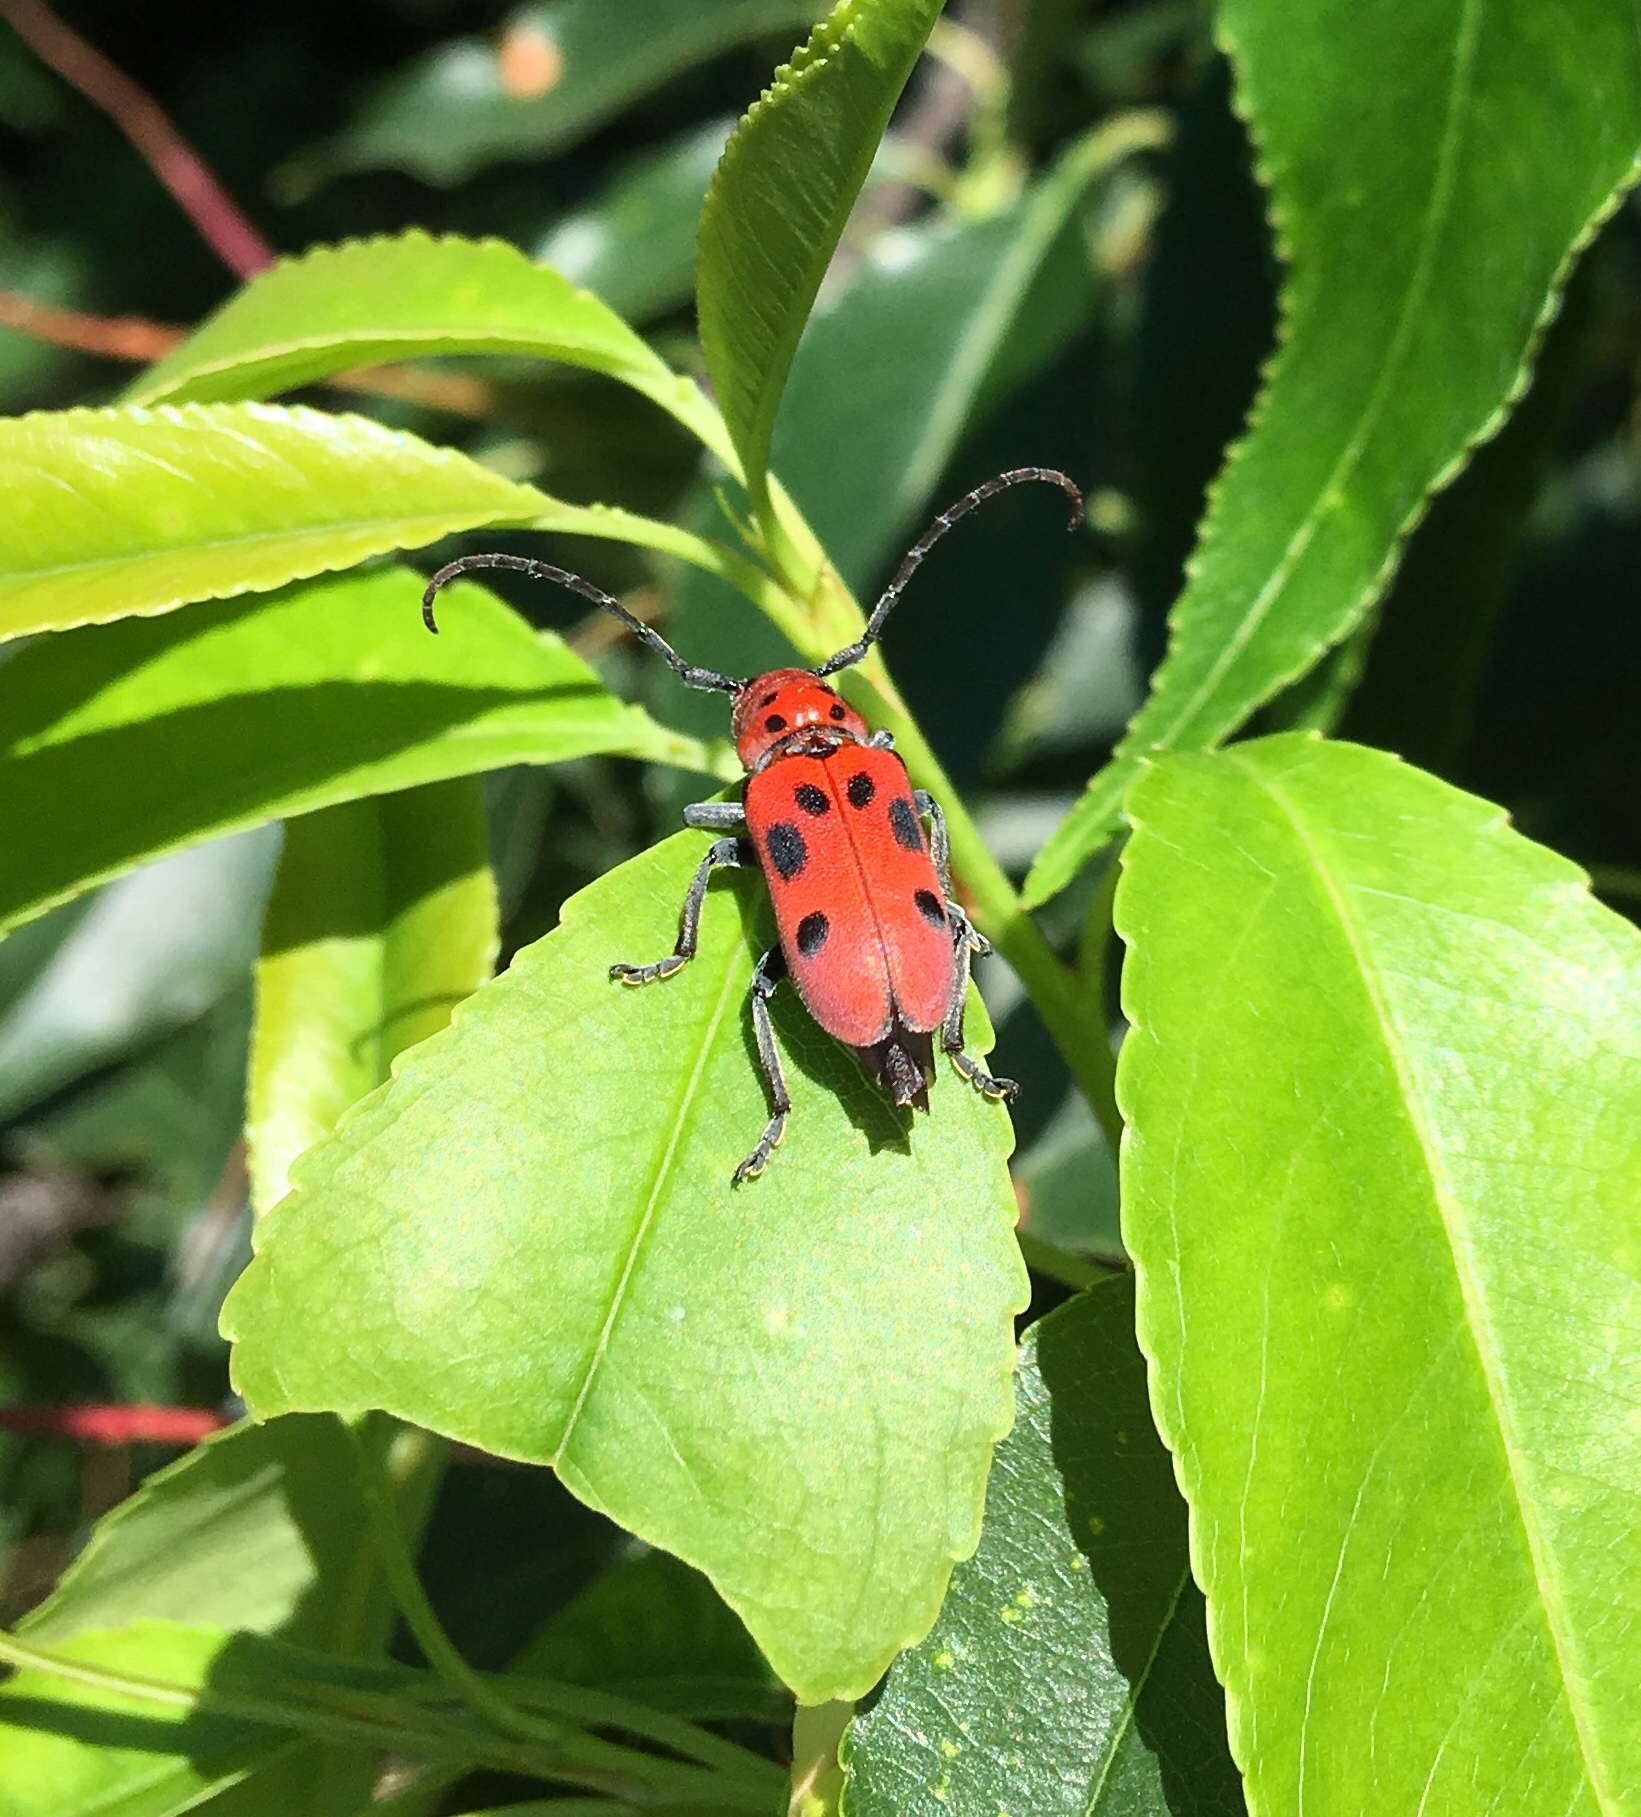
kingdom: Animalia
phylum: Arthropoda
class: Insecta
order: Coleoptera
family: Cerambycidae
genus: Tetraopes
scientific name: Tetraopes tetrophthalmus
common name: Red milkweed beetle
